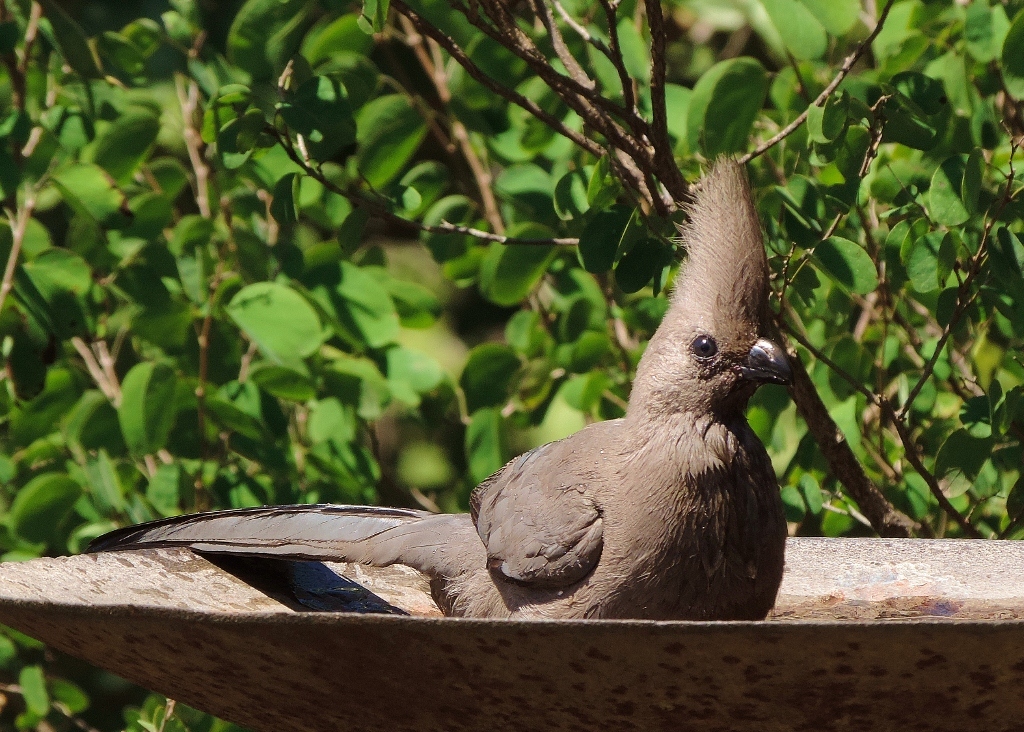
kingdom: Animalia
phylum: Chordata
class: Aves
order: Musophagiformes
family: Musophagidae
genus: Corythaixoides
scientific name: Corythaixoides concolor
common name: Grey go-away-bird
